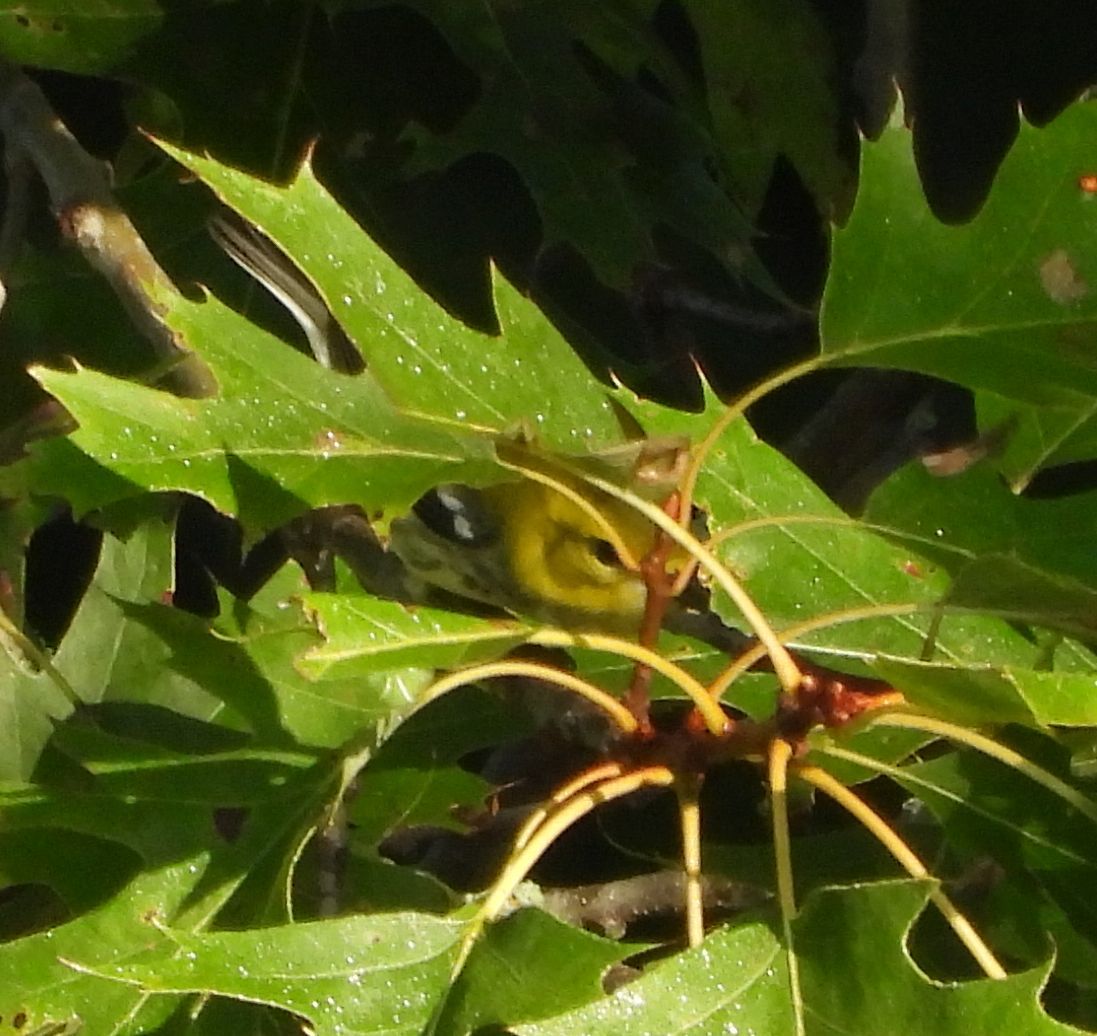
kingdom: Animalia
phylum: Chordata
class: Aves
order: Passeriformes
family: Parulidae
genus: Setophaga
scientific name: Setophaga virens
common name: Black-throated green warbler
